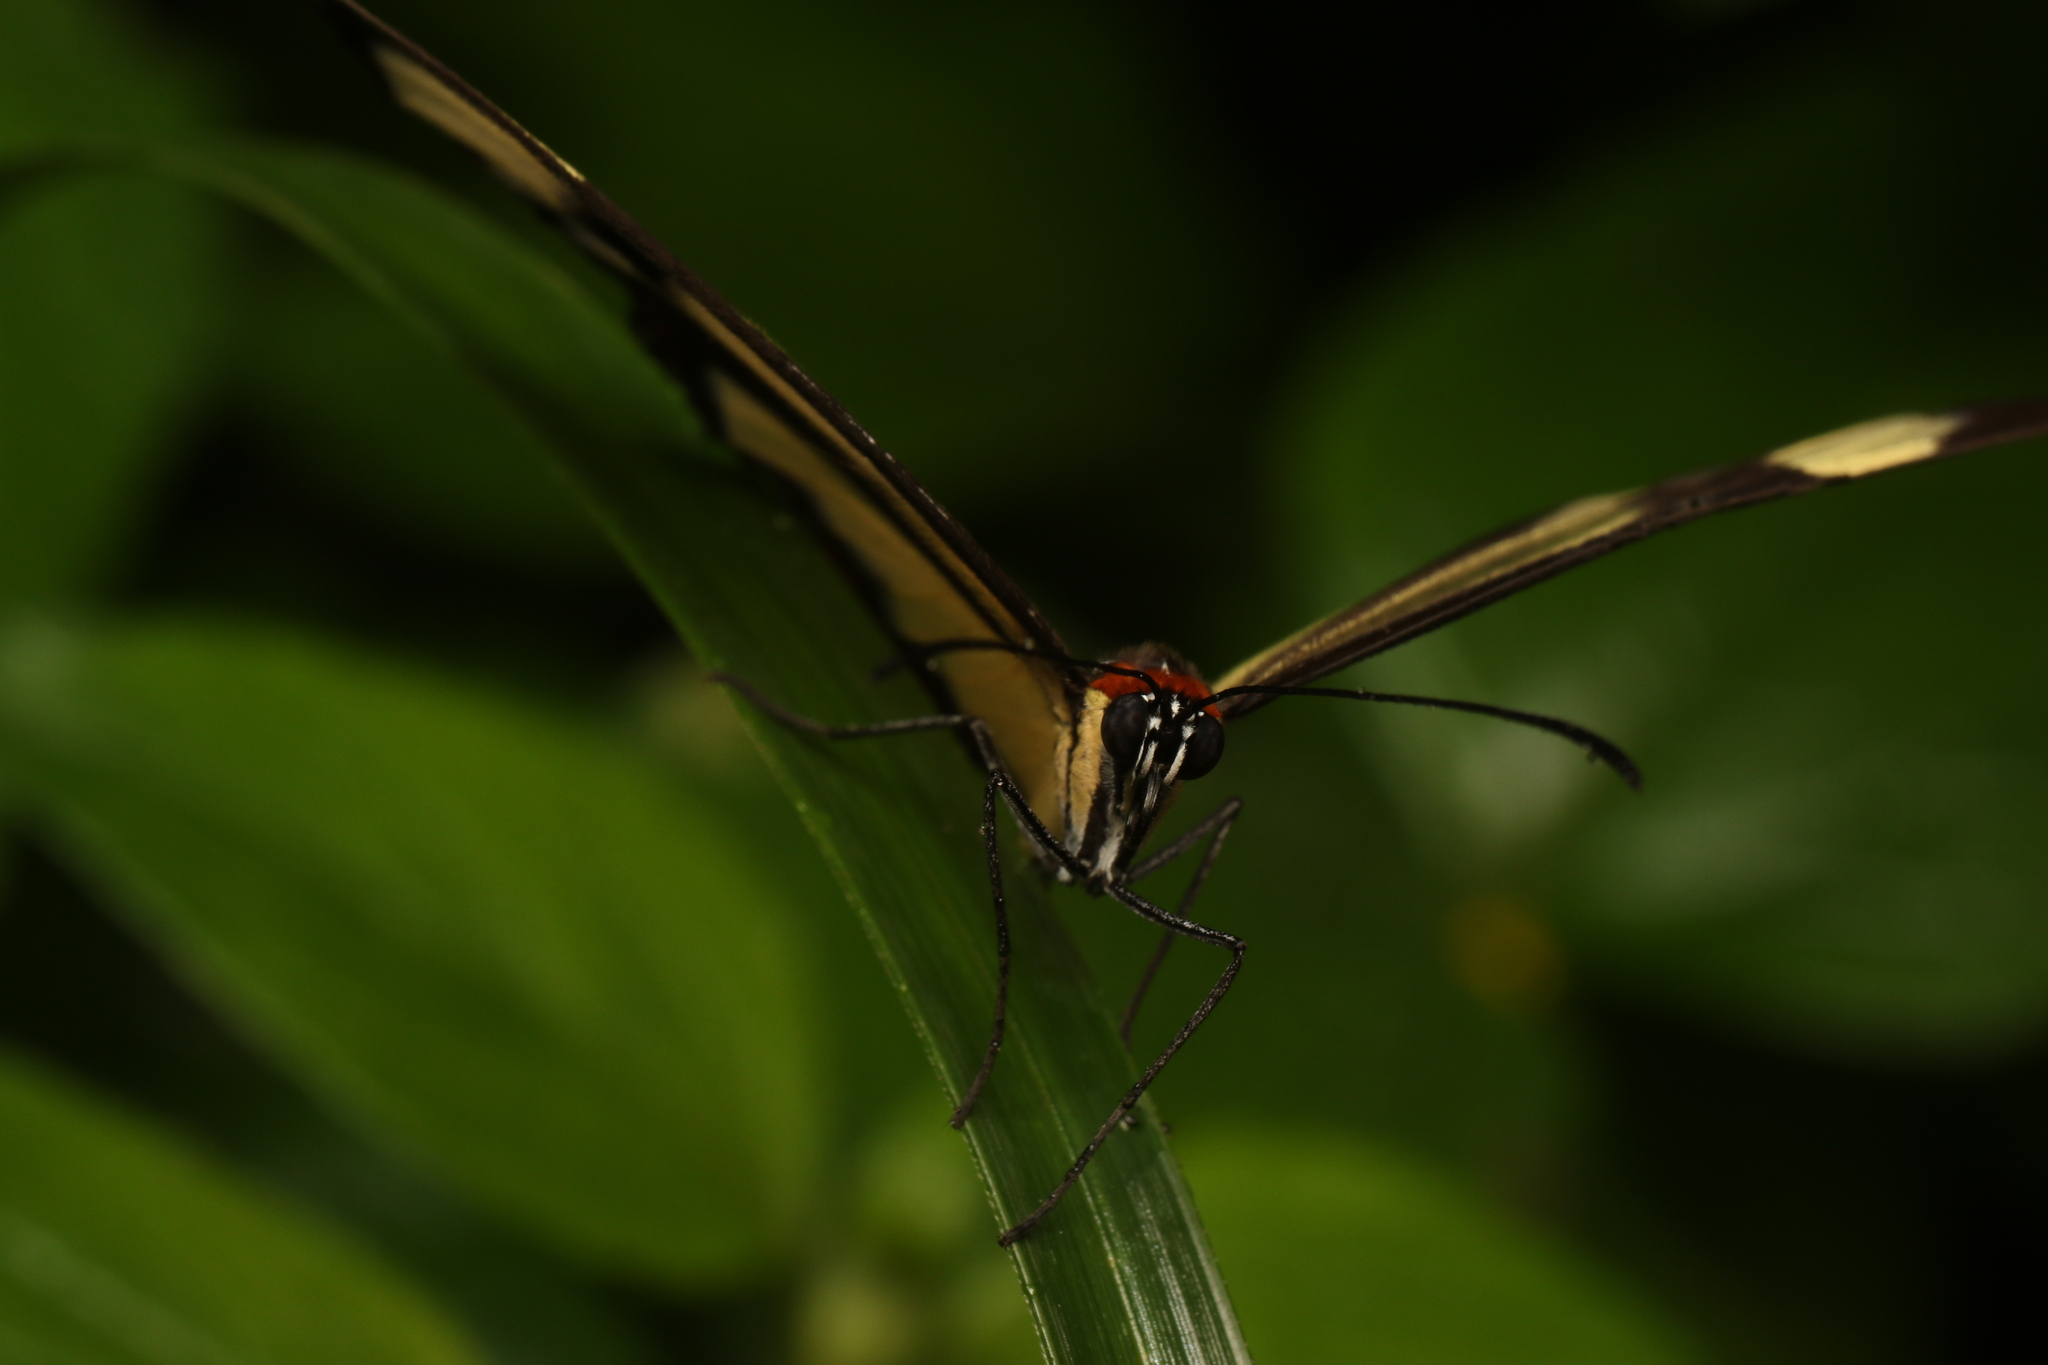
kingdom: Animalia
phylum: Arthropoda
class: Insecta
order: Lepidoptera
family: Nymphalidae
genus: Epityches
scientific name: Epityches eupompe
